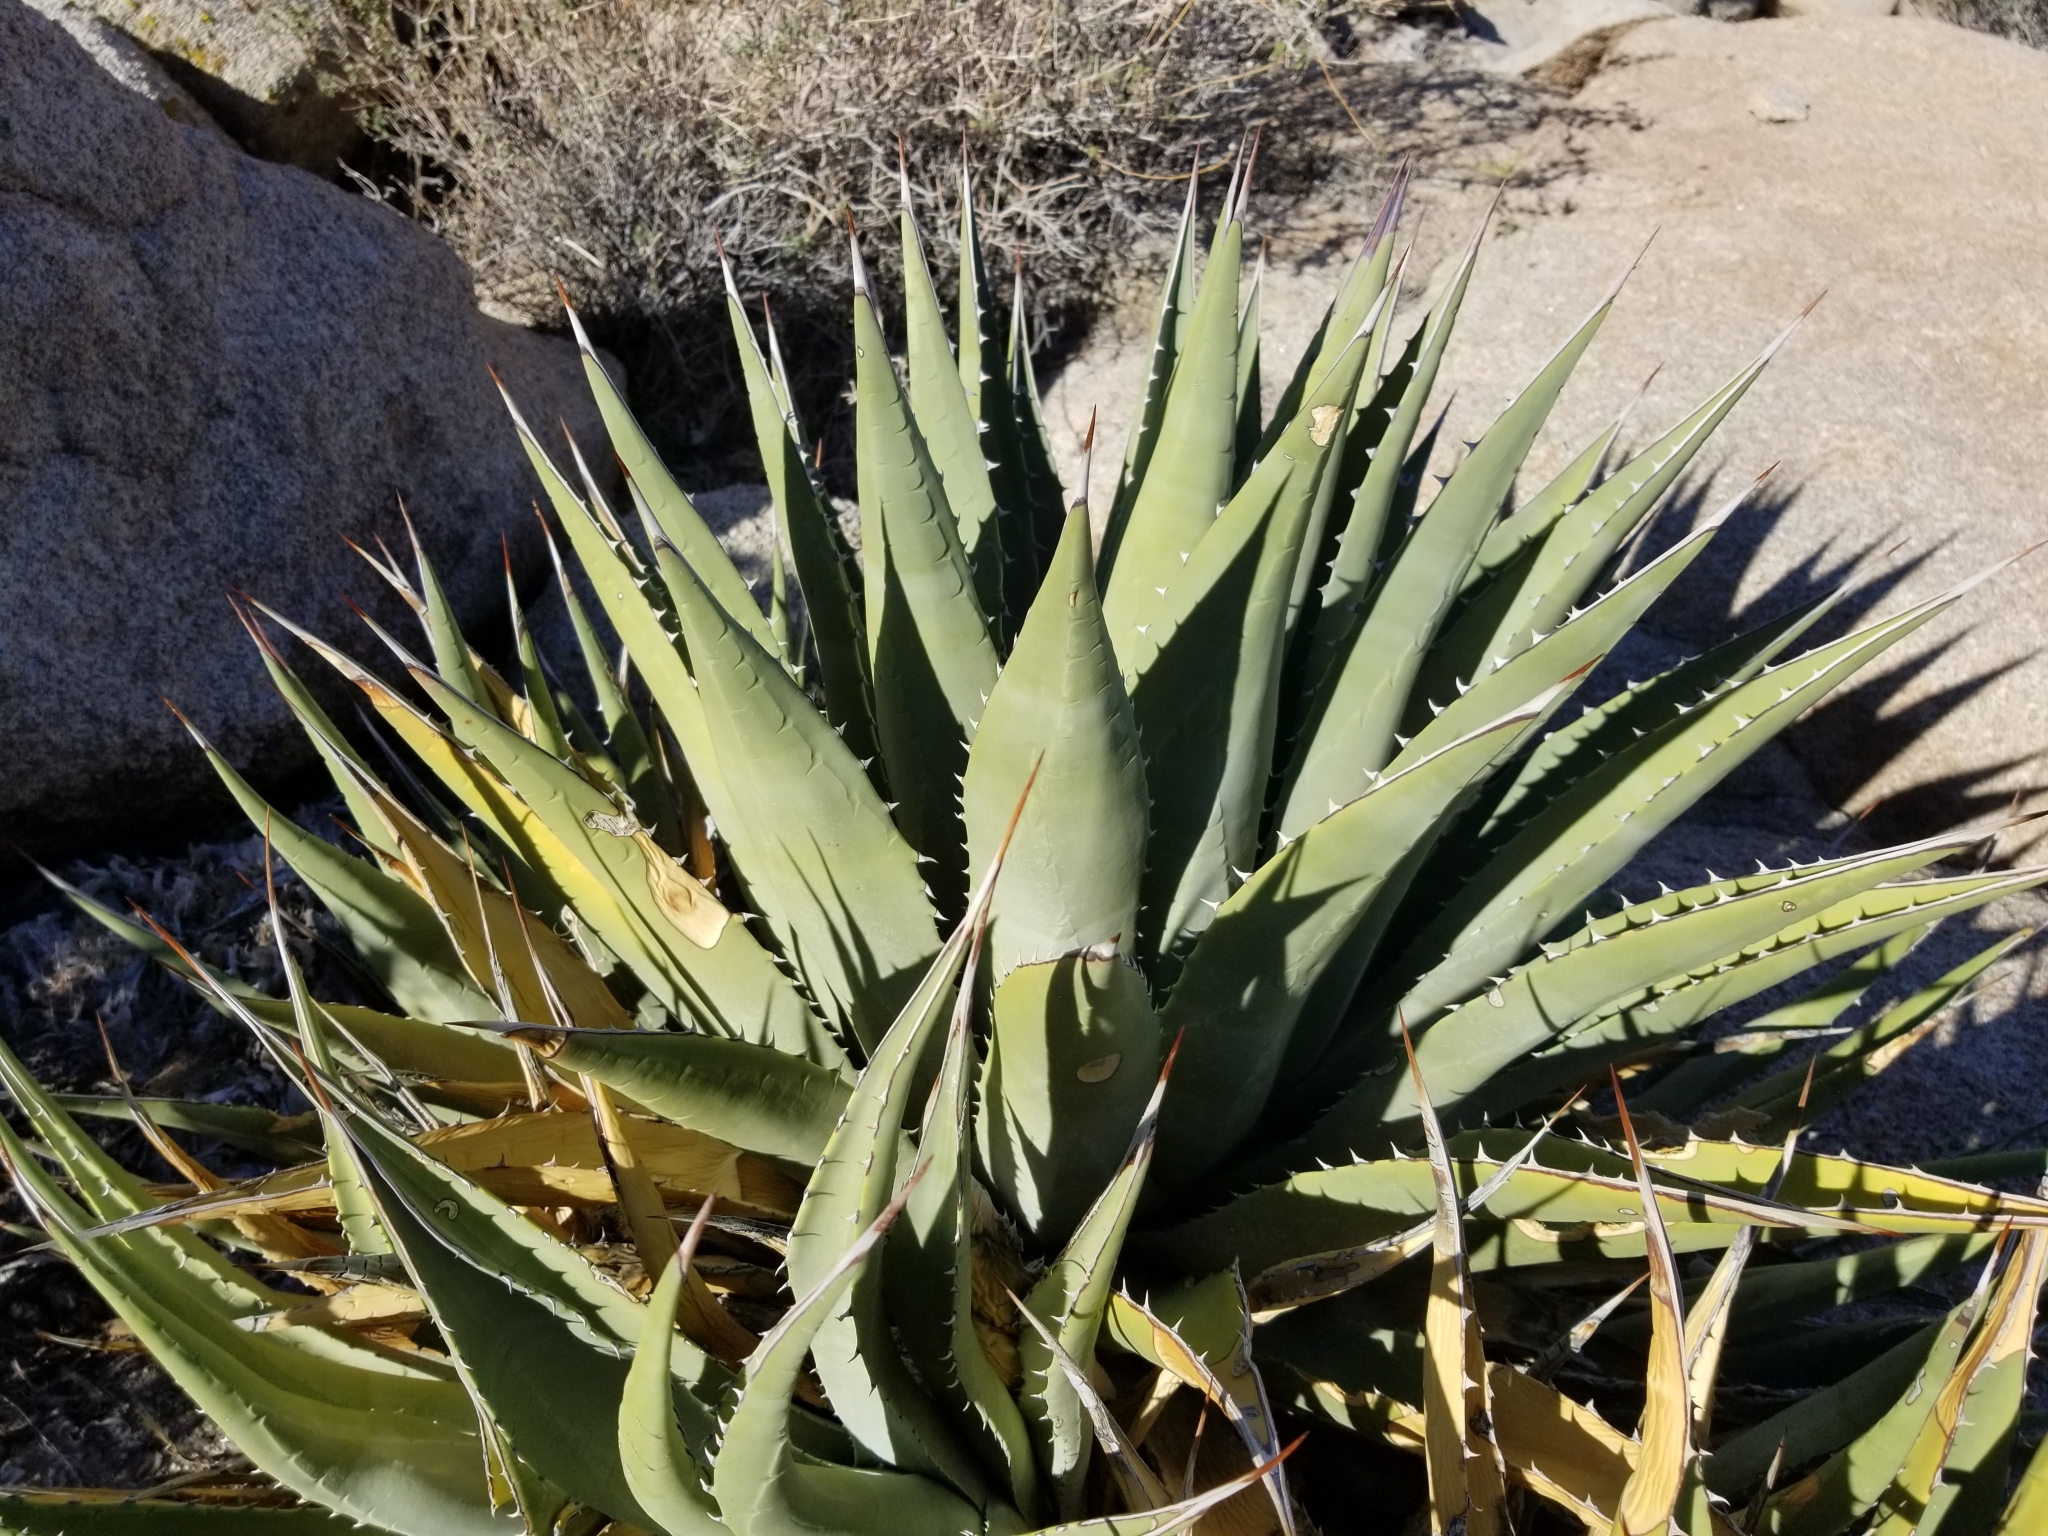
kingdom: Plantae
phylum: Tracheophyta
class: Liliopsida
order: Asparagales
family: Asparagaceae
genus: Agave
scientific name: Agave deserti
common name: Desert agave
